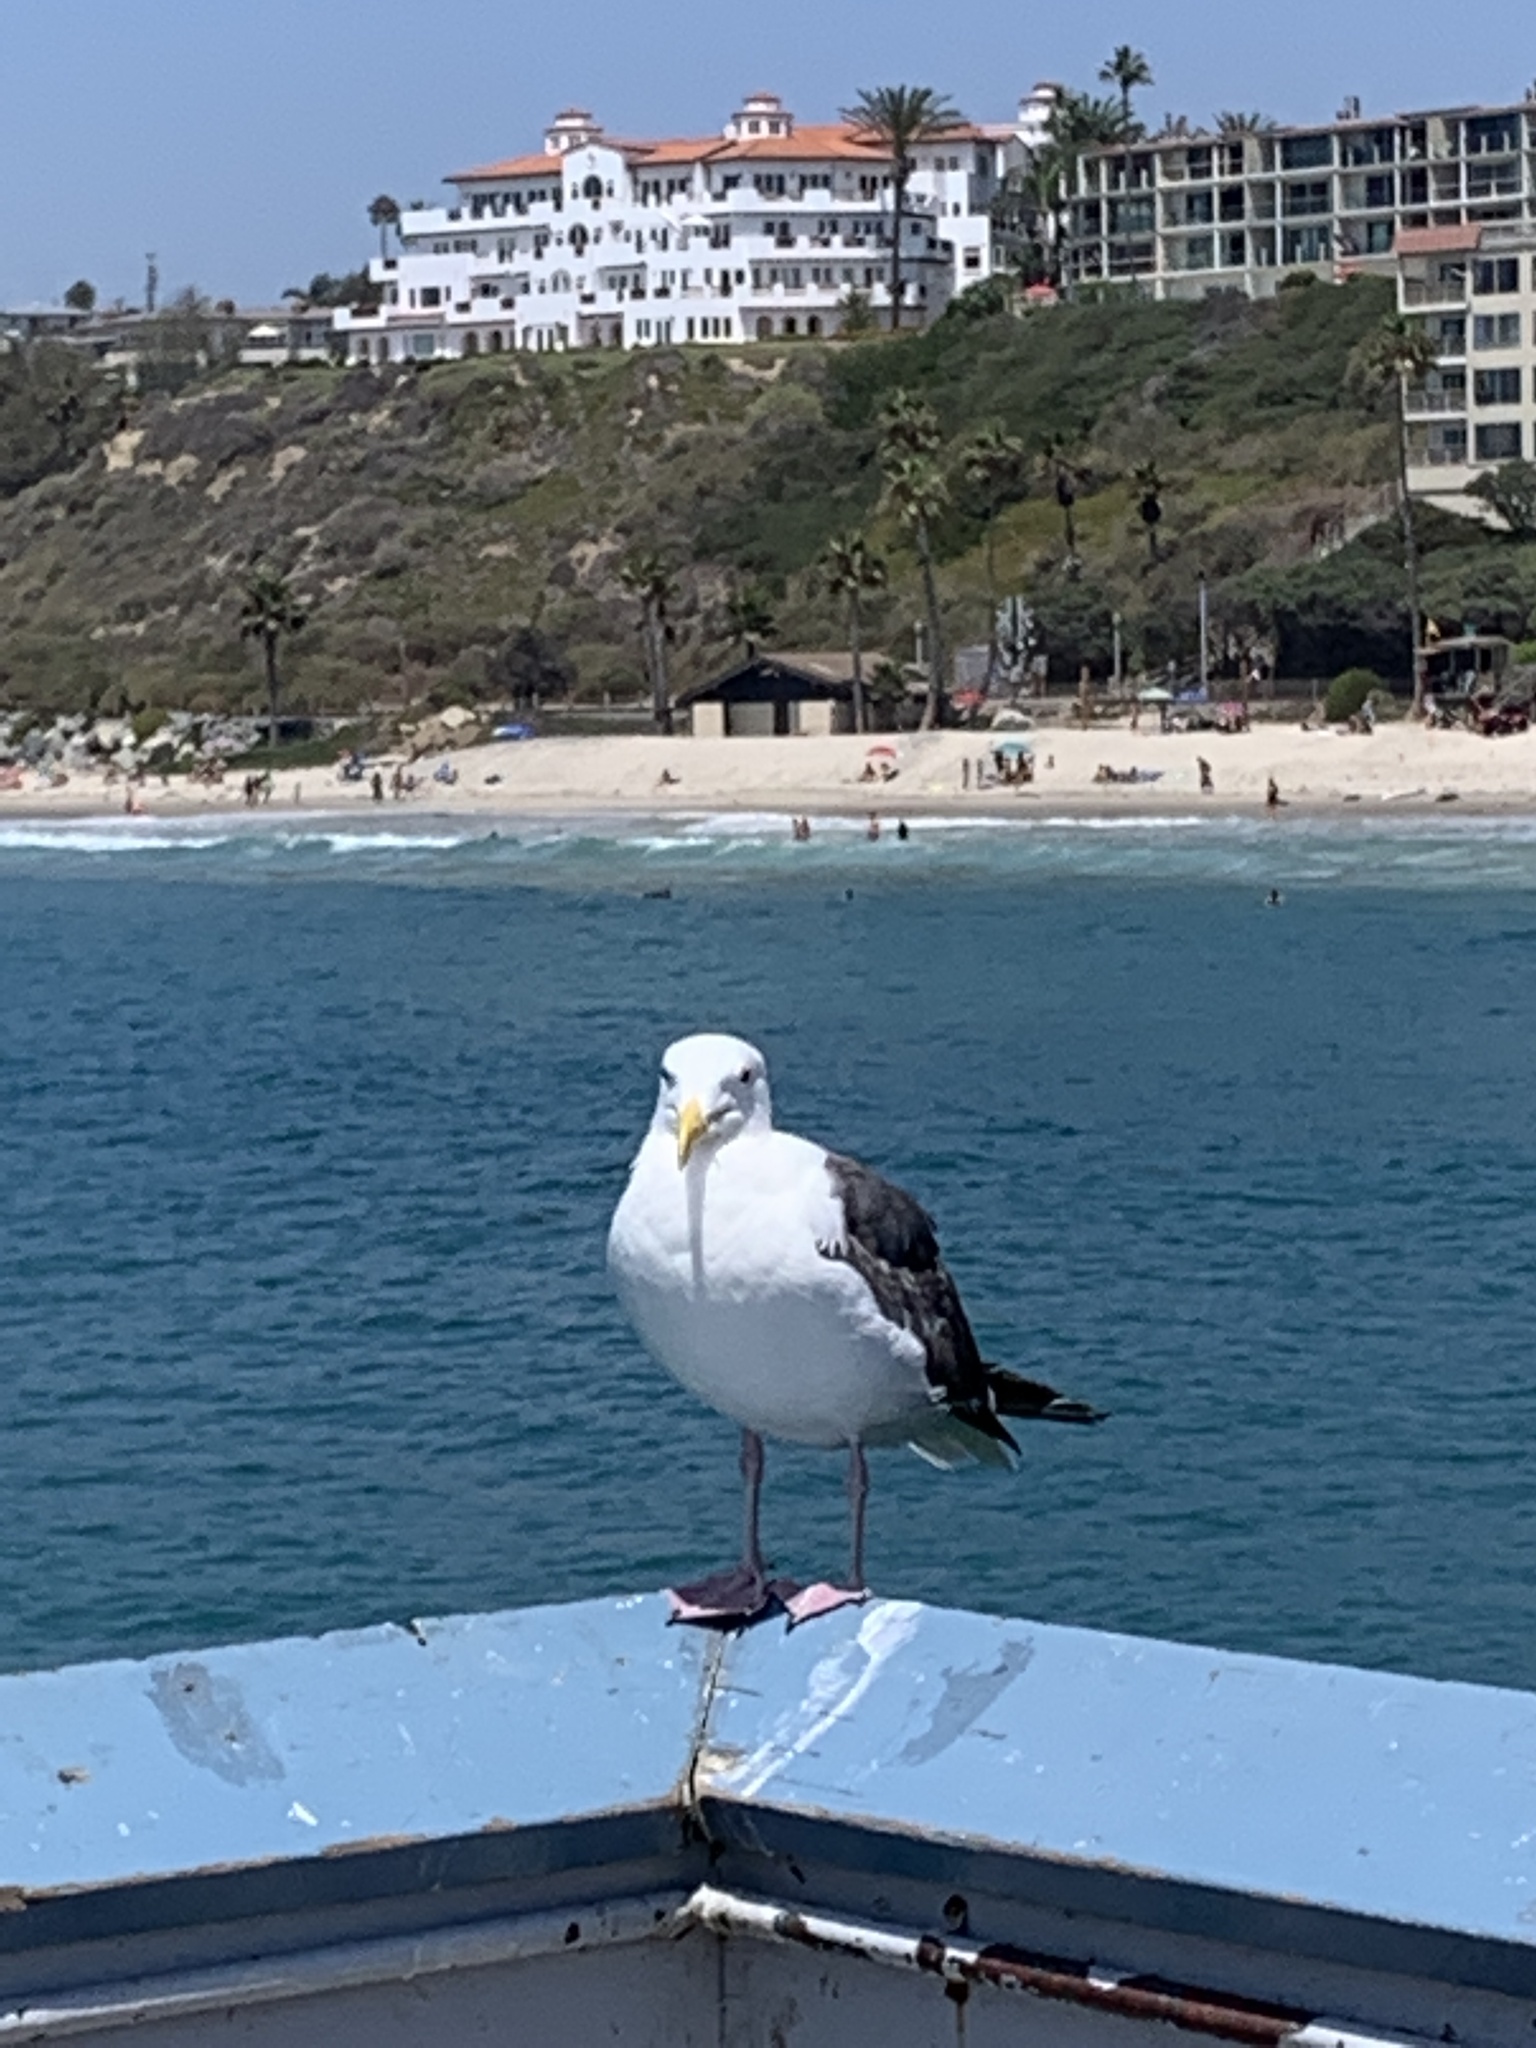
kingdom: Animalia
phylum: Chordata
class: Aves
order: Charadriiformes
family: Laridae
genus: Larus
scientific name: Larus occidentalis
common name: Western gull
